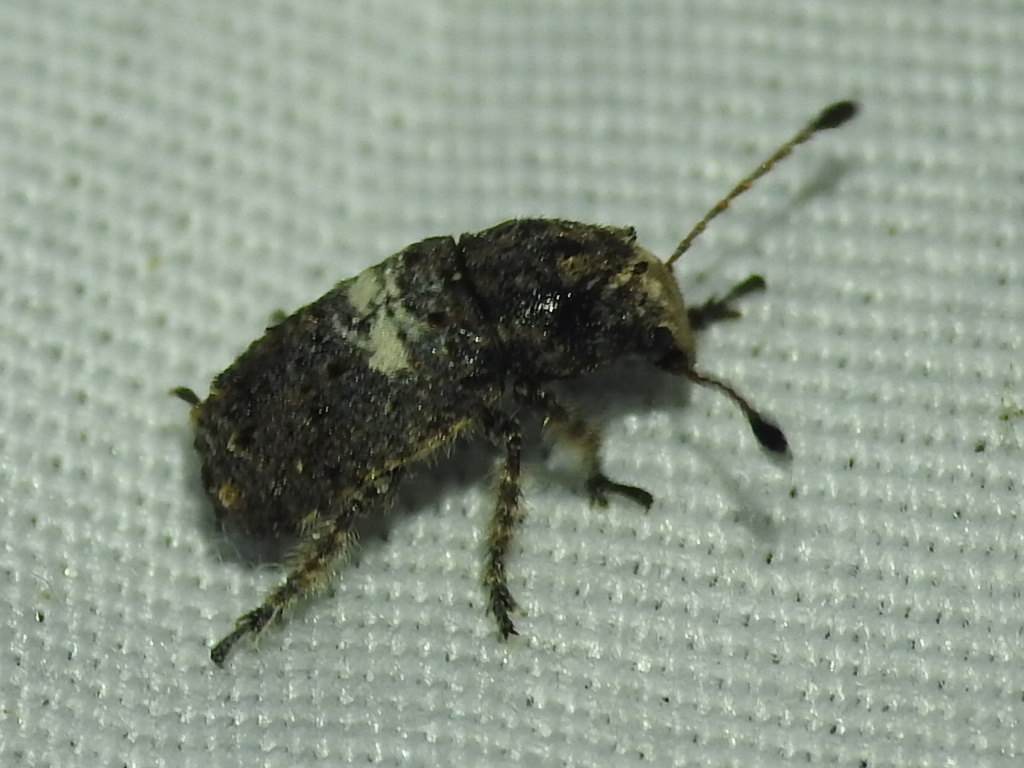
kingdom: Animalia
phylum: Arthropoda
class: Insecta
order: Coleoptera
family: Anthribidae
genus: Toxonotus
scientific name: Toxonotus cornutus
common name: Fungus weevil
